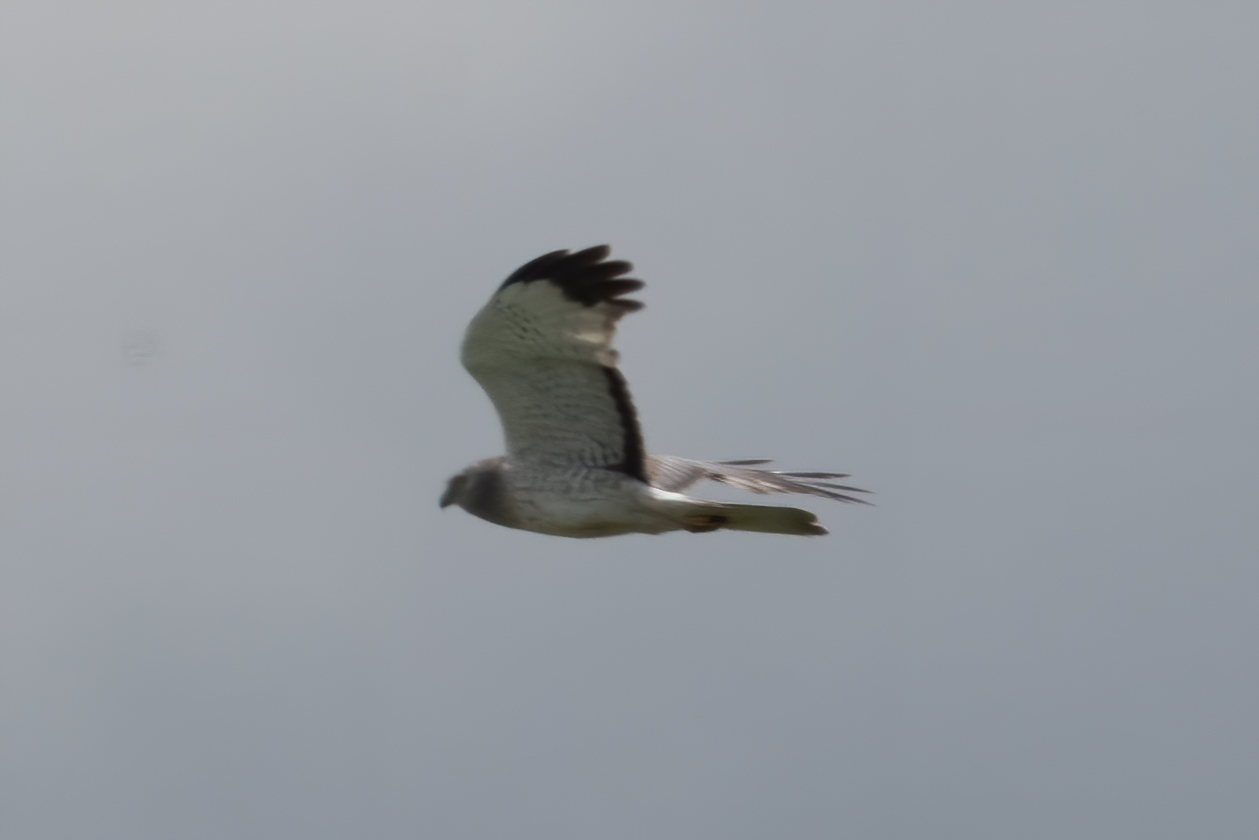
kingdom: Animalia
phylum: Chordata
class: Aves
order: Accipitriformes
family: Accipitridae
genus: Circus
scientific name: Circus cyaneus
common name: Hen harrier
